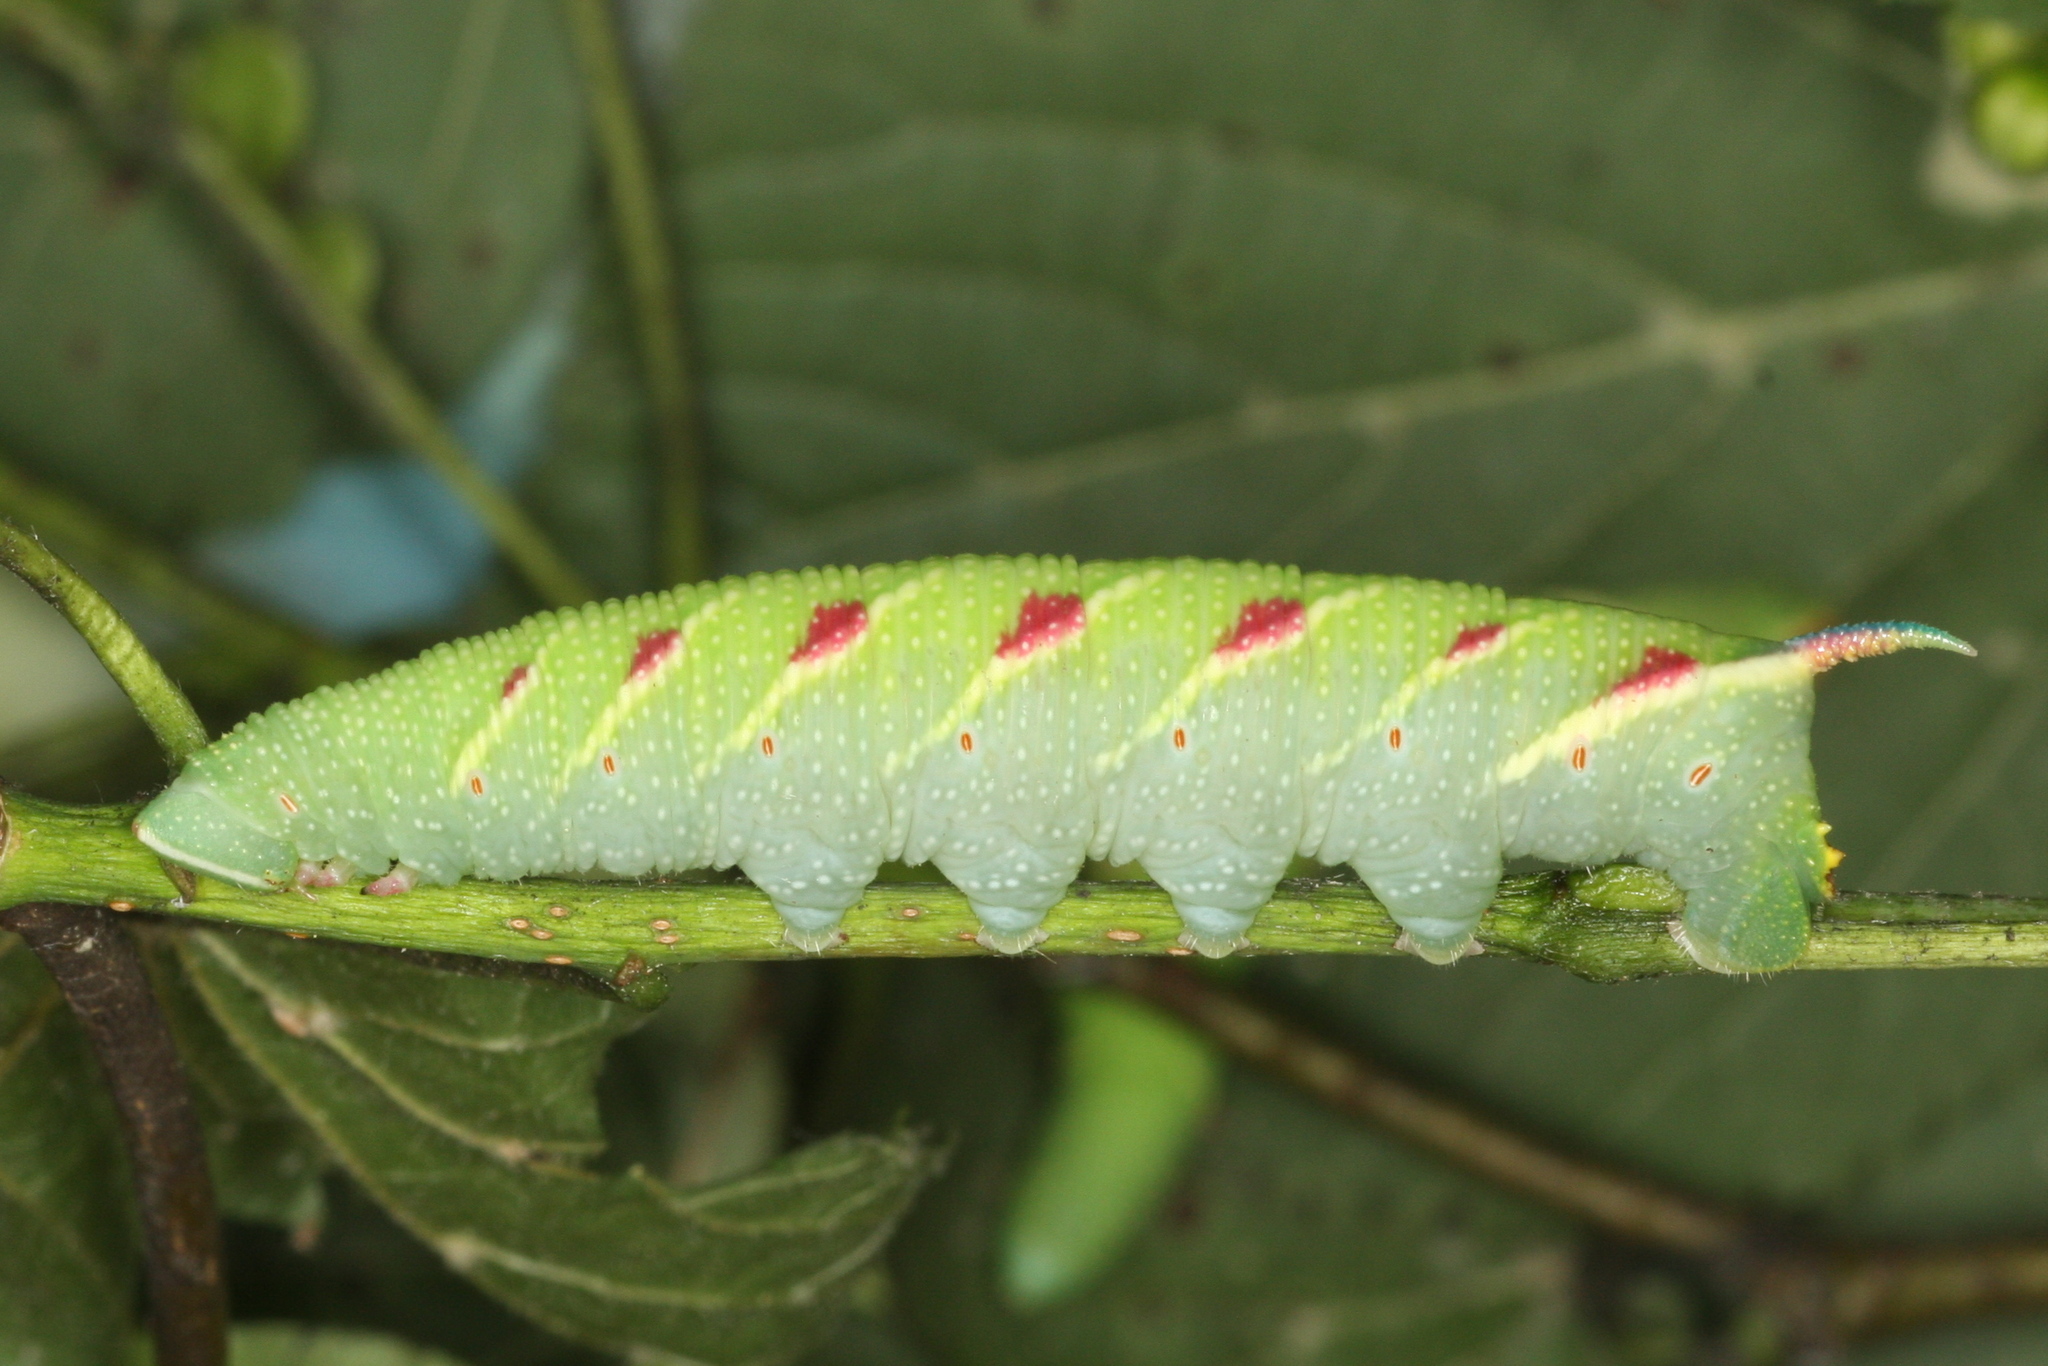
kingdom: Animalia
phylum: Arthropoda
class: Insecta
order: Lepidoptera
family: Sphingidae
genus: Mimas
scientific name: Mimas tiliae
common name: Lime hawk-moth
